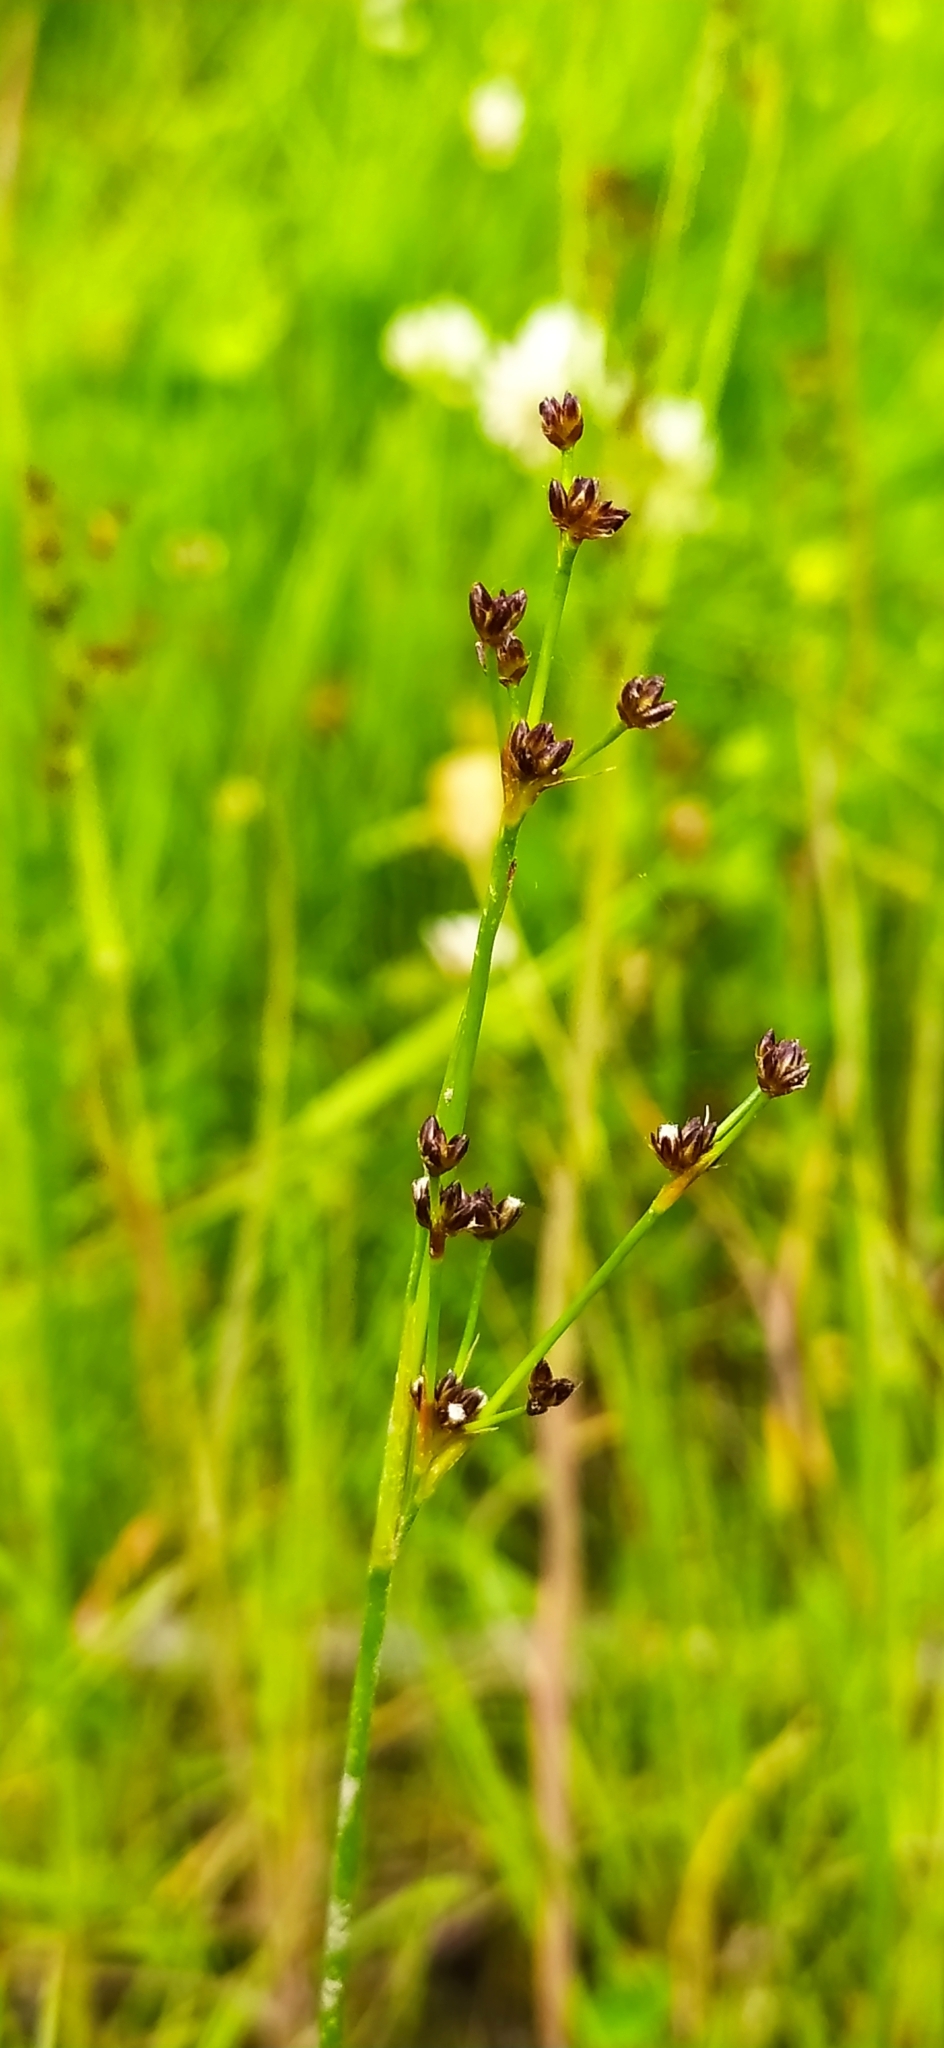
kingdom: Plantae
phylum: Tracheophyta
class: Liliopsida
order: Poales
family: Juncaceae
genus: Juncus
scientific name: Juncus alpinoarticulatus
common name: Alpine rush
